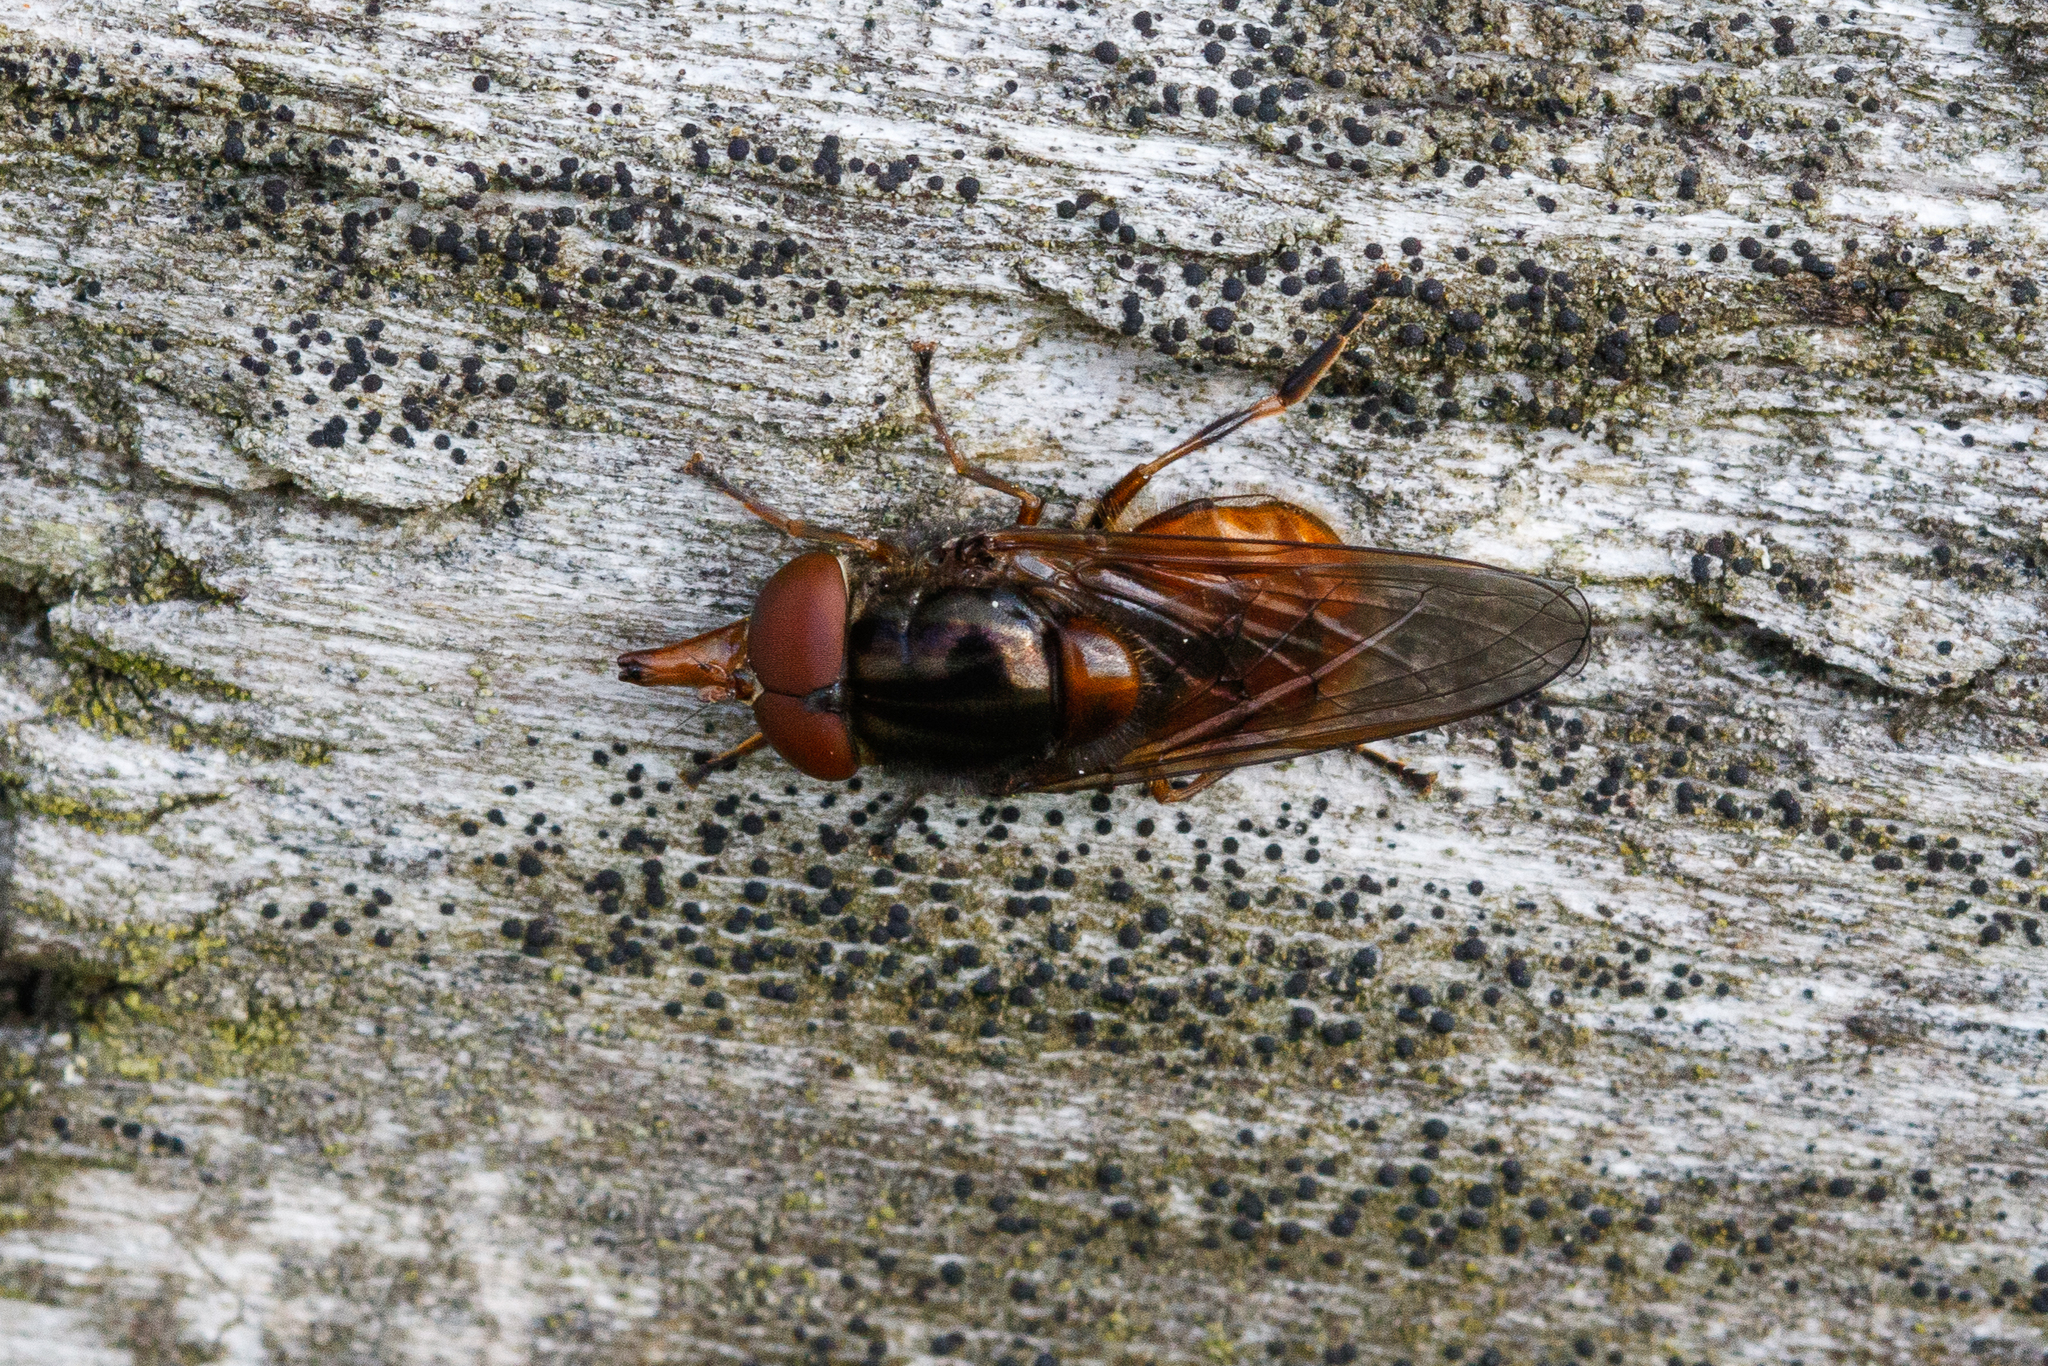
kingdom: Animalia
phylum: Arthropoda
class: Insecta
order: Diptera
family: Syrphidae
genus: Rhingia
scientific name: Rhingia campestris
